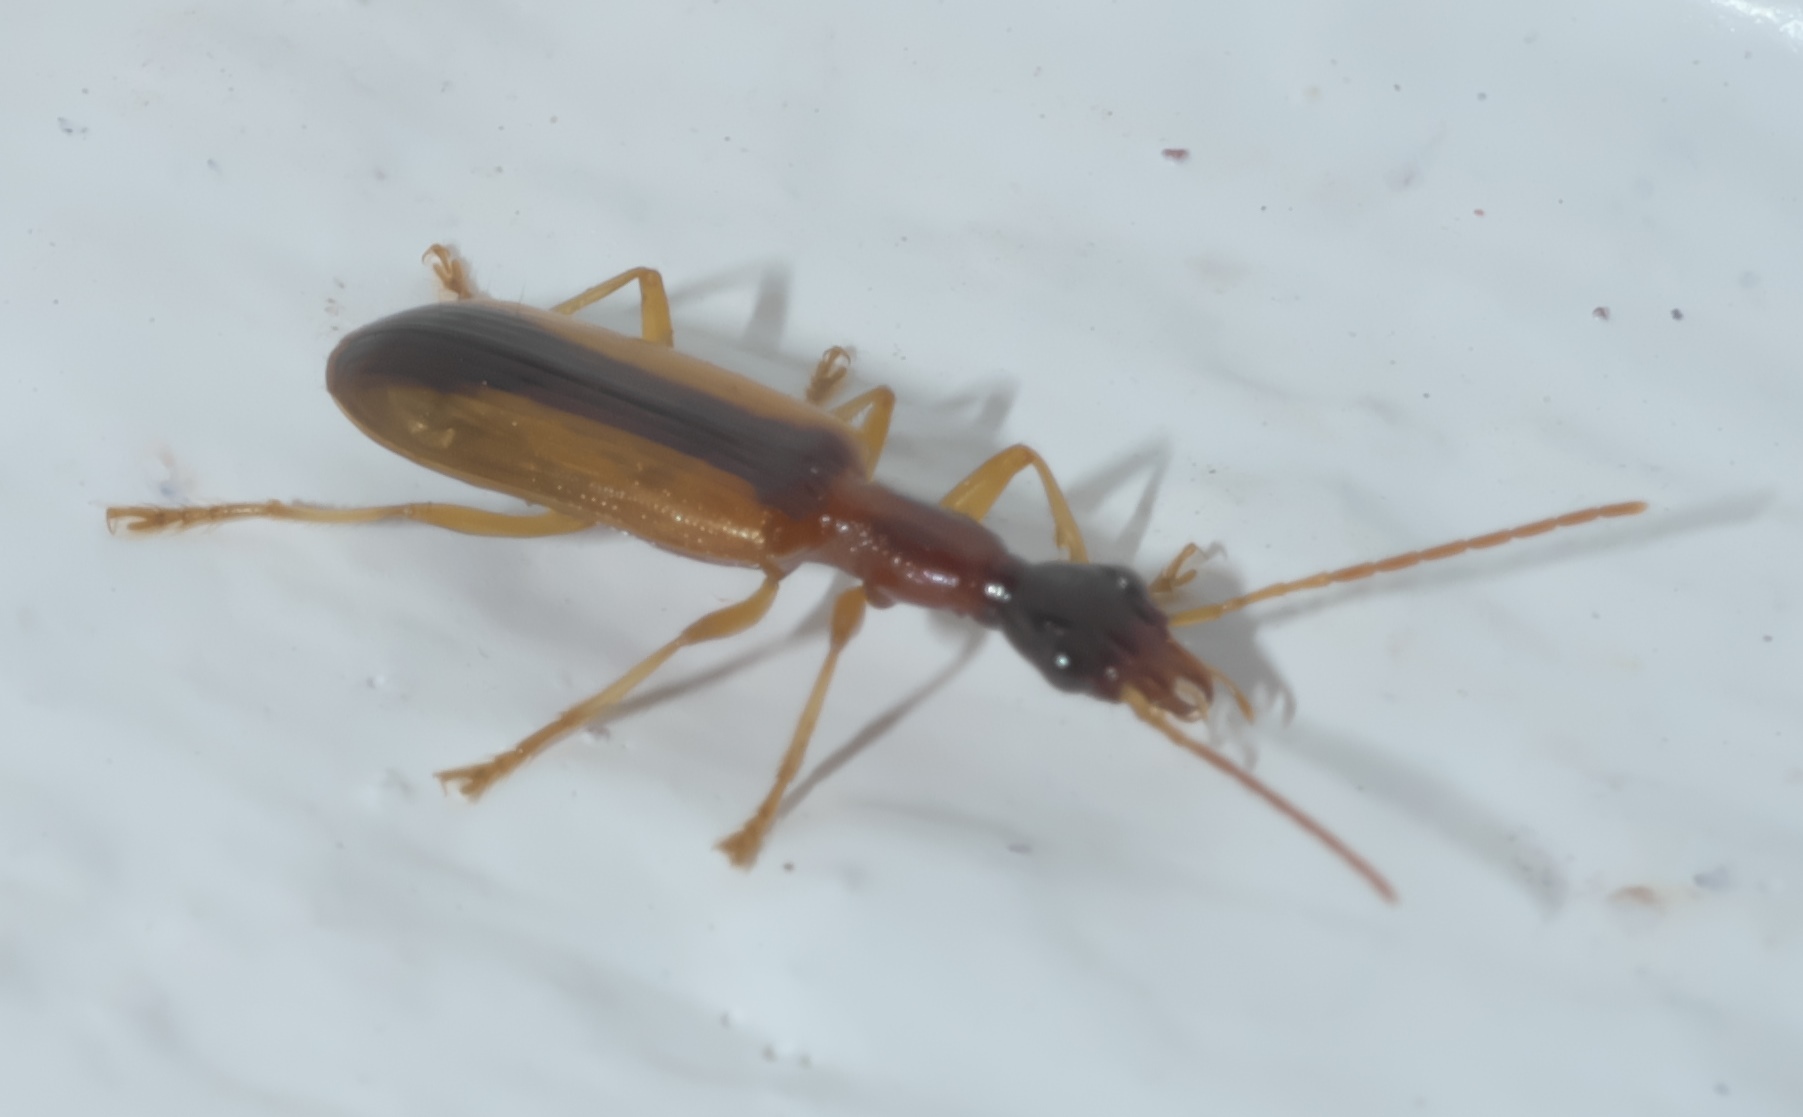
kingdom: Animalia
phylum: Arthropoda
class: Insecta
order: Coleoptera
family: Carabidae
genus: Leptotrachelus
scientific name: Leptotrachelus dorsalis
